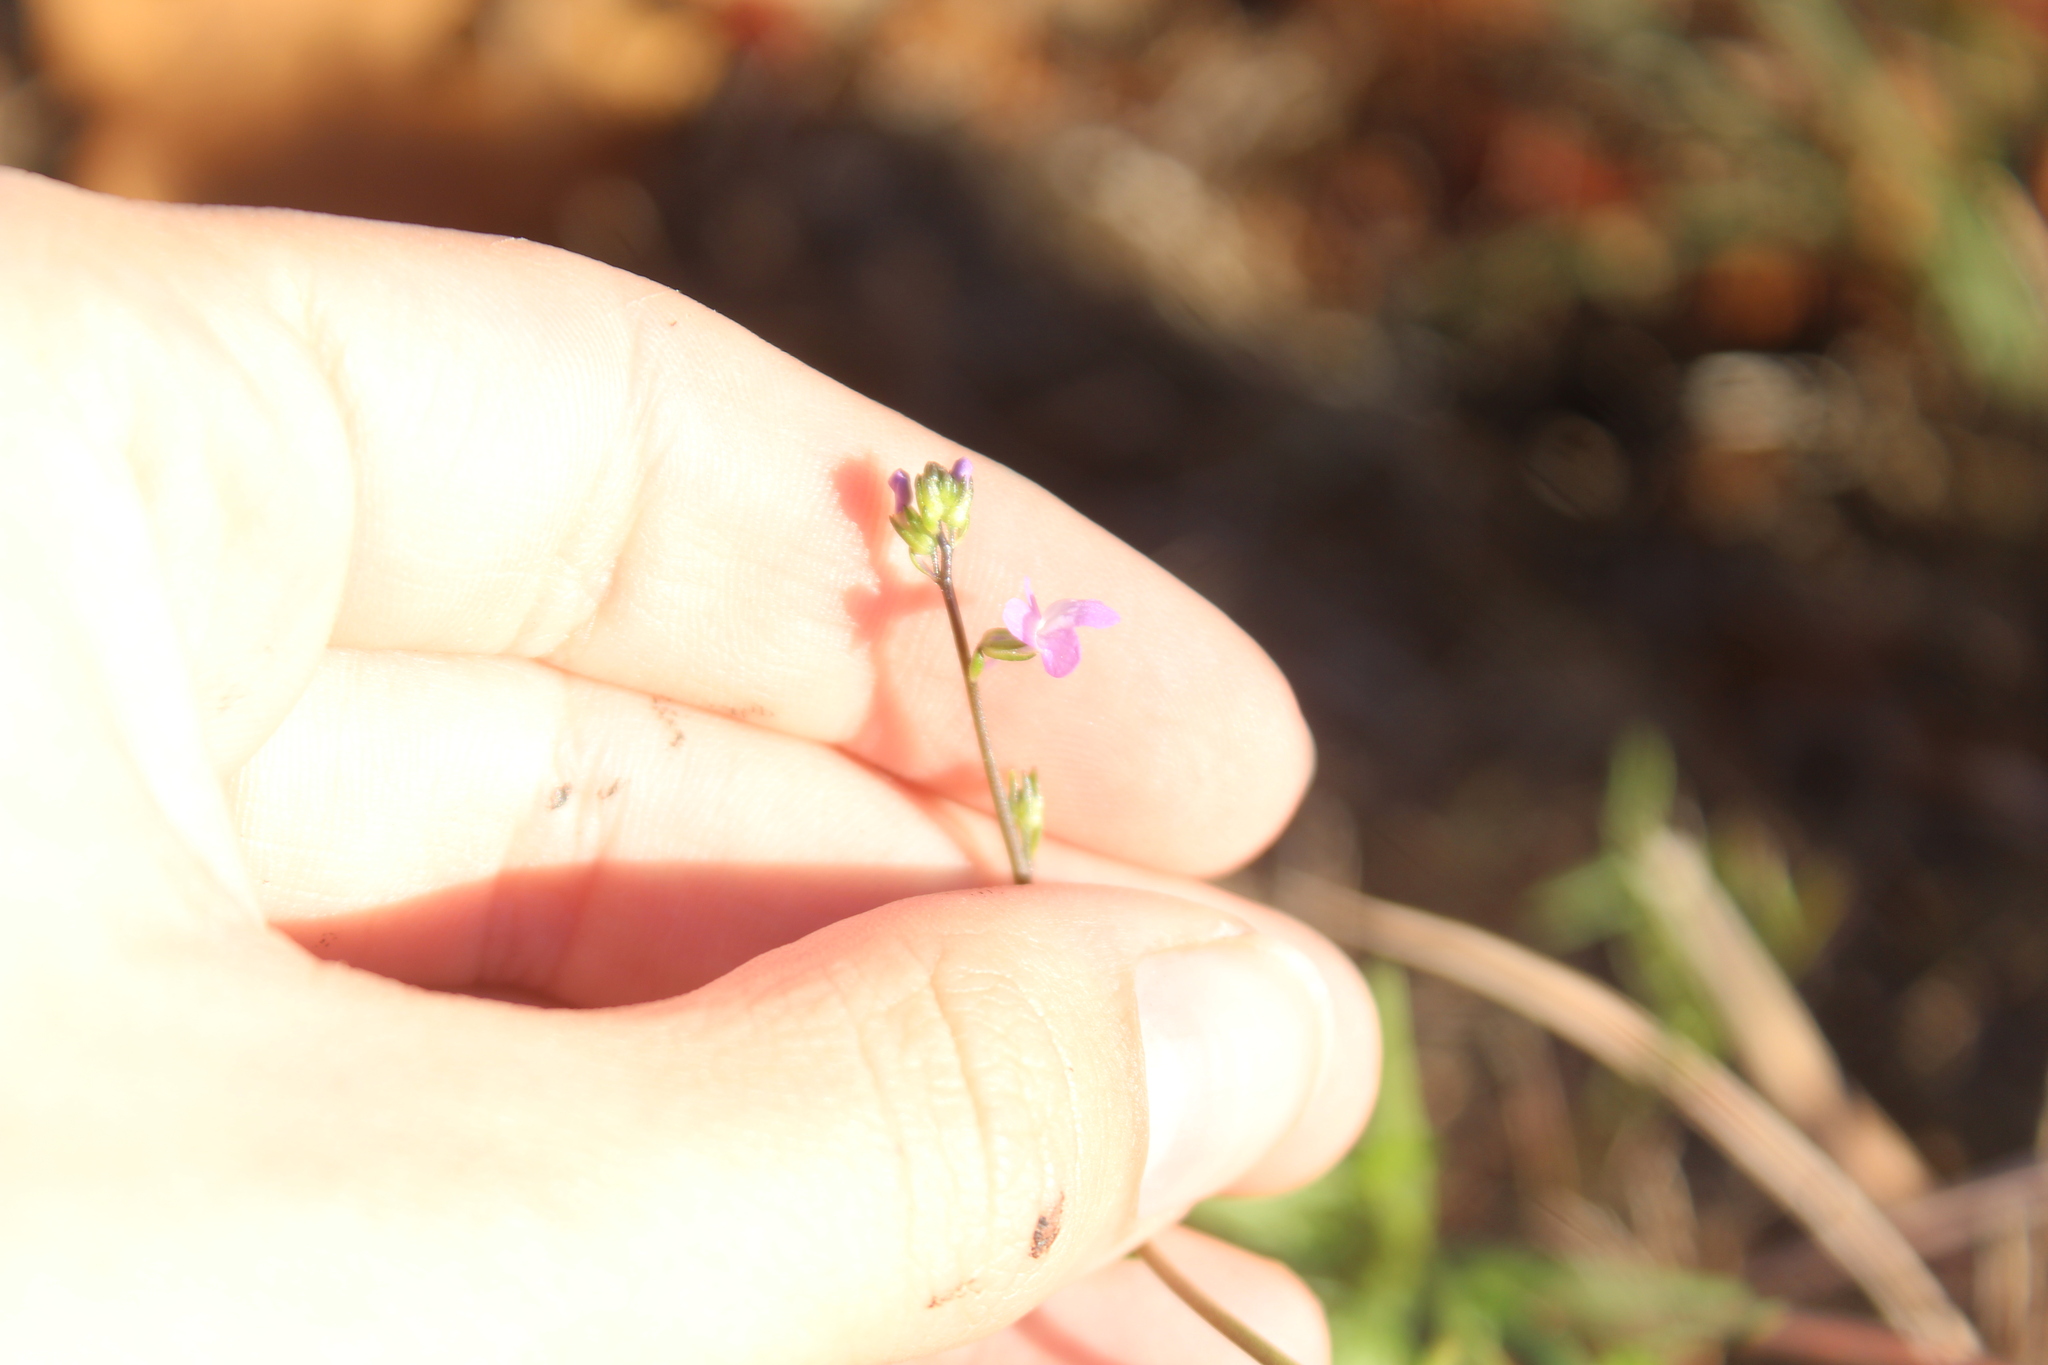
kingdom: Plantae
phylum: Tracheophyta
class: Magnoliopsida
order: Lamiales
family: Plantaginaceae
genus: Nuttallanthus
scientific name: Nuttallanthus canadensis
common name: Blue toadflax
